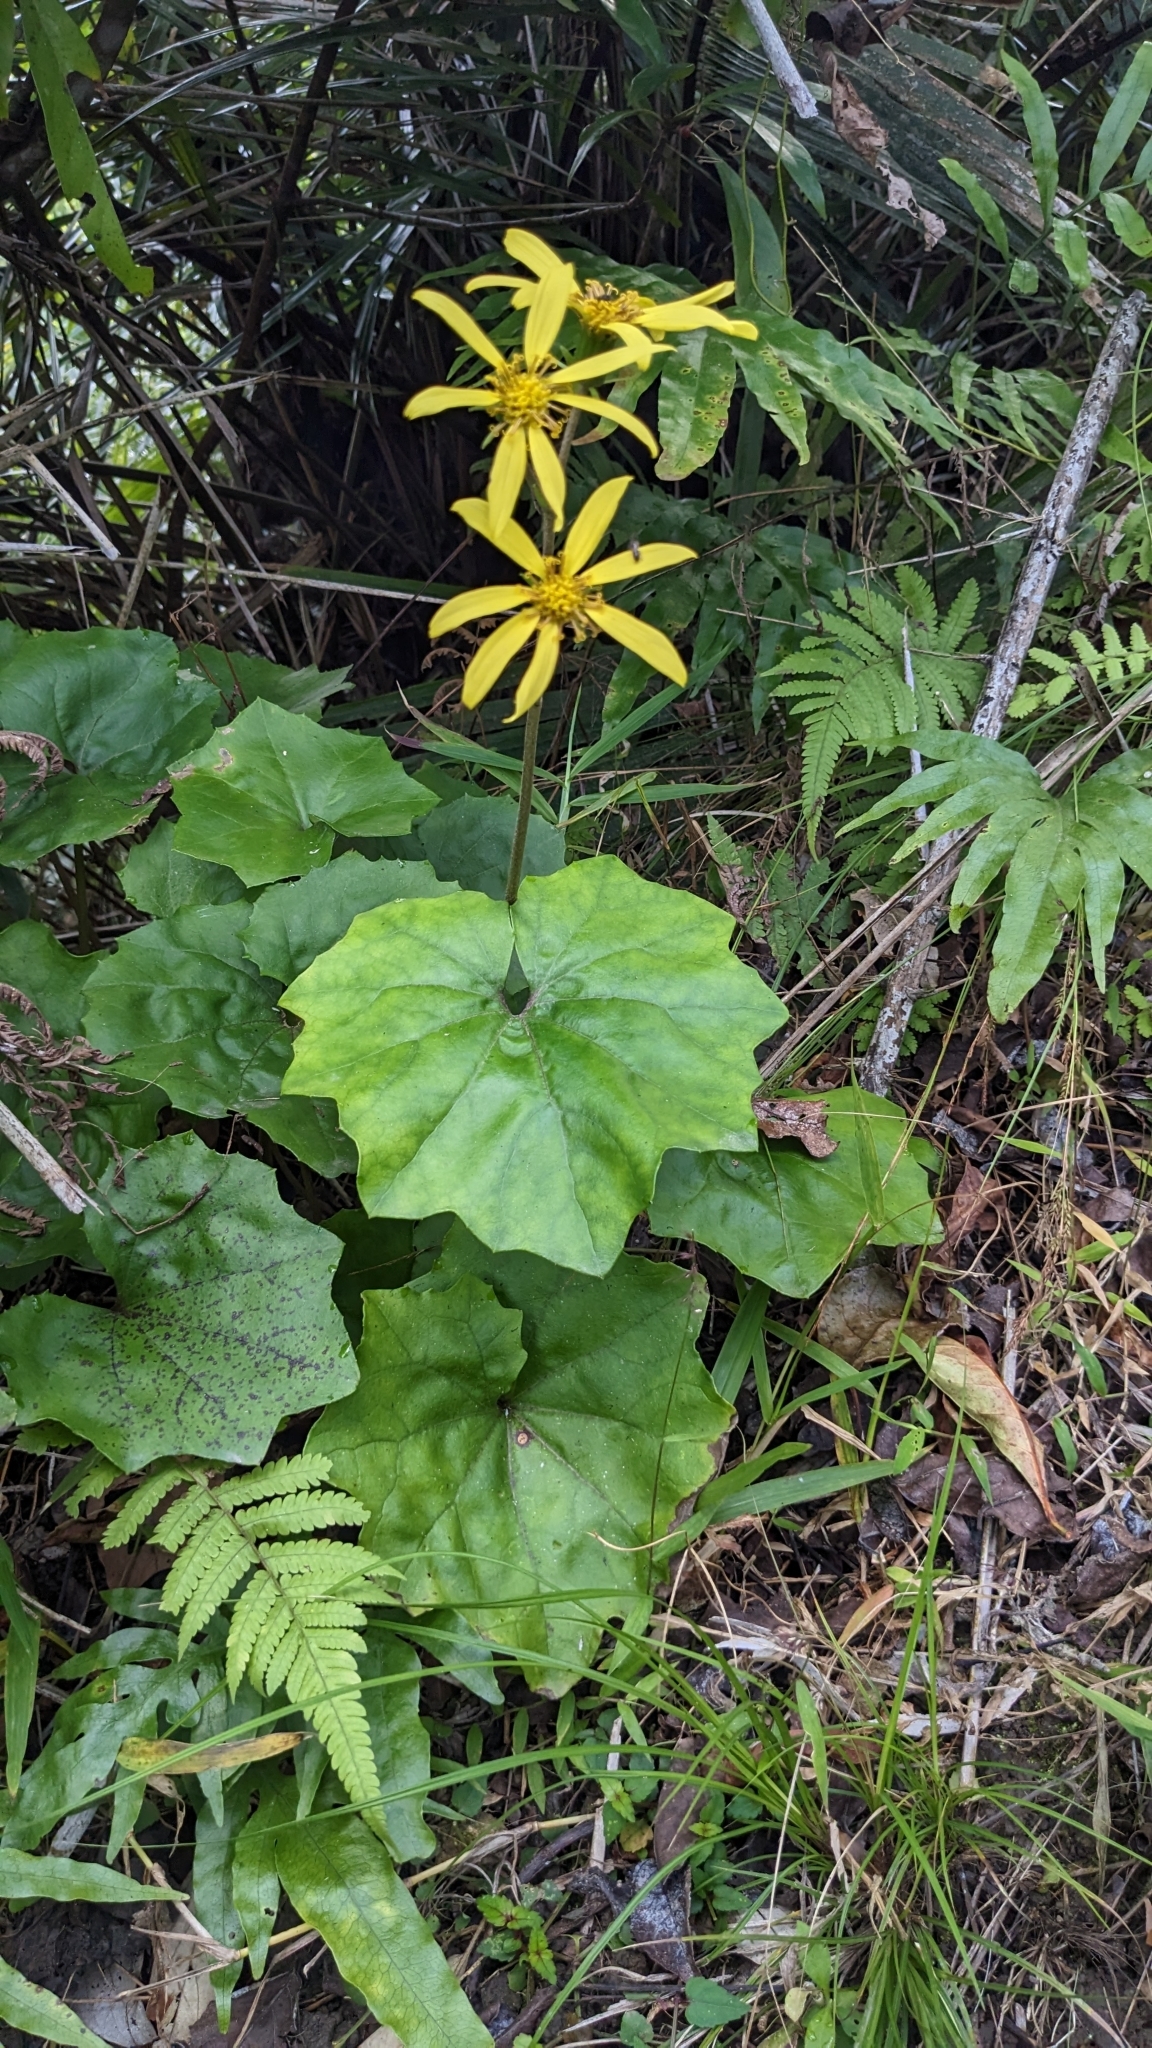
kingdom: Plantae
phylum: Tracheophyta
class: Magnoliopsida
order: Asterales
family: Asteraceae
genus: Farfugium
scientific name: Farfugium japonicum
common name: Leopardplant
